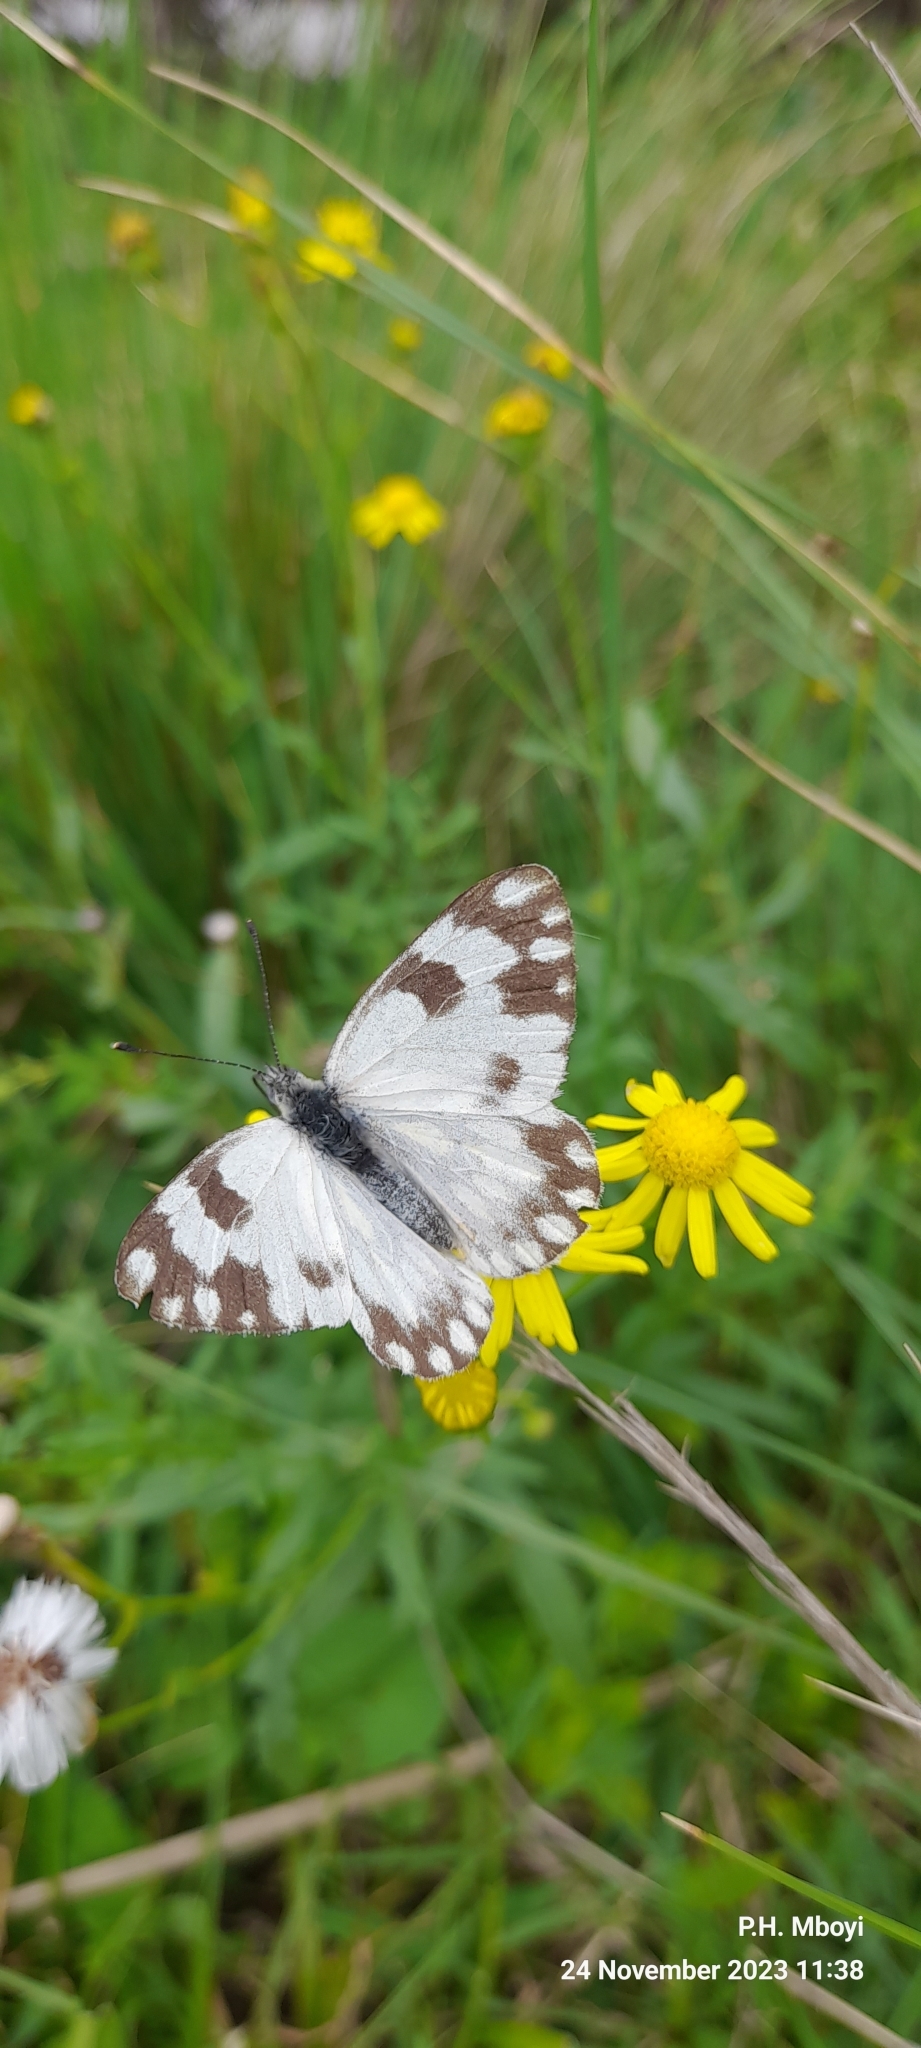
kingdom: Animalia
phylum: Arthropoda
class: Insecta
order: Lepidoptera
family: Pieridae
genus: Pontia
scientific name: Pontia helice
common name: Meadow white
